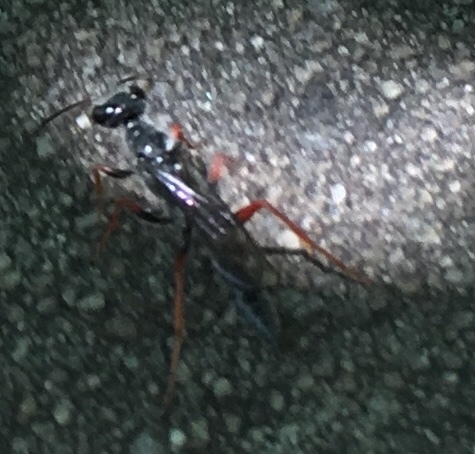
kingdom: Animalia
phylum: Arthropoda
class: Insecta
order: Hymenoptera
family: Sphecidae
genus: Podium
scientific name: Podium rufipes
